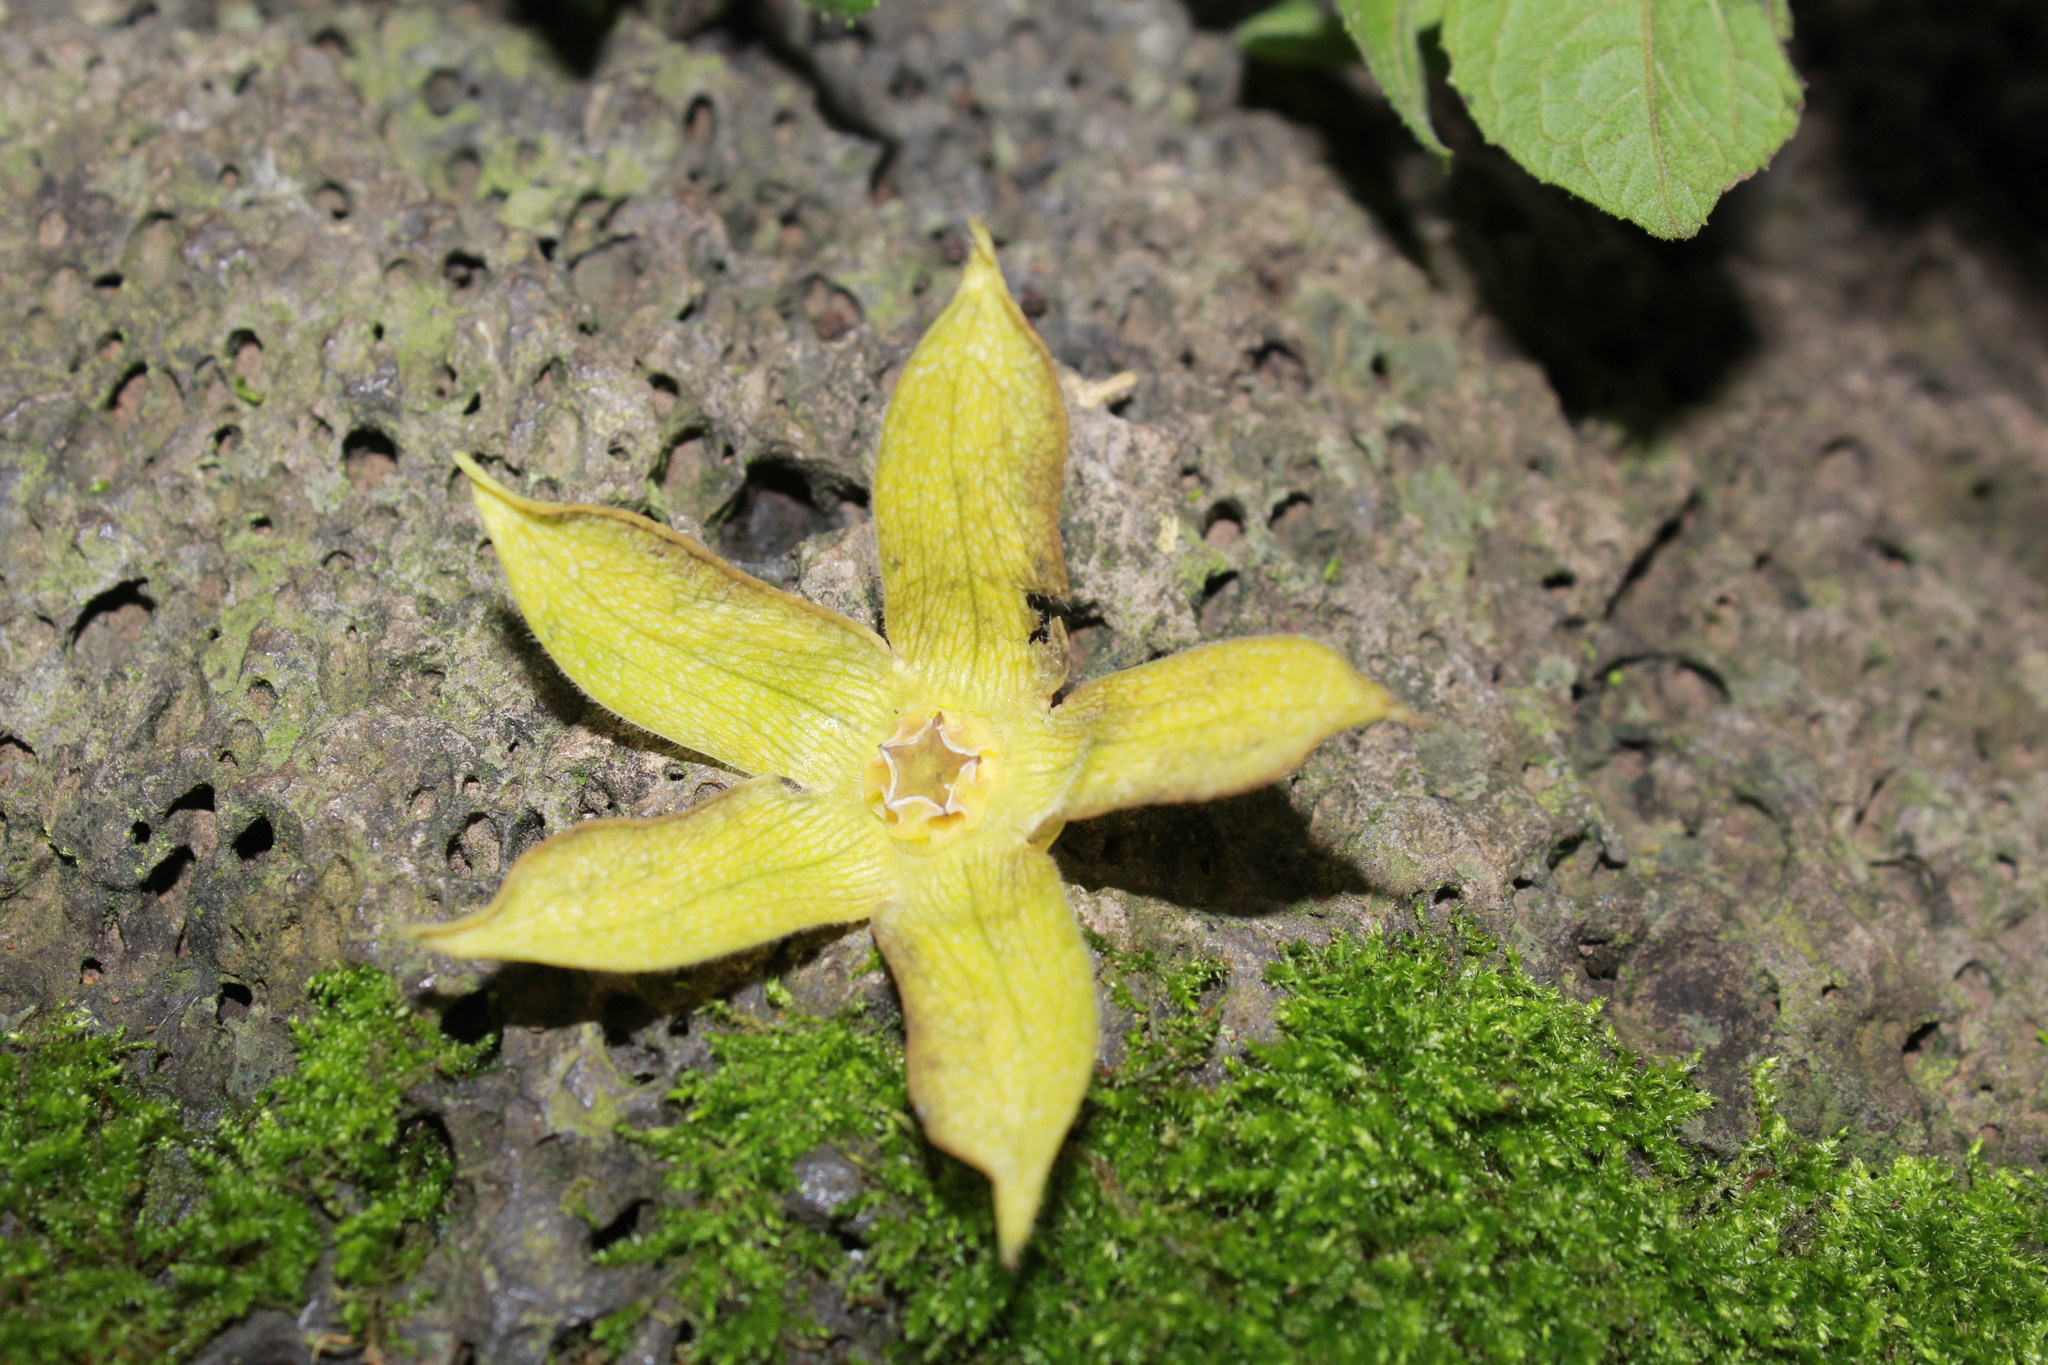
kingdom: Plantae
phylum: Tracheophyta
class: Magnoliopsida
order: Gentianales
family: Apocynaceae
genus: Gonolobus
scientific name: Gonolobus grandiflorus
